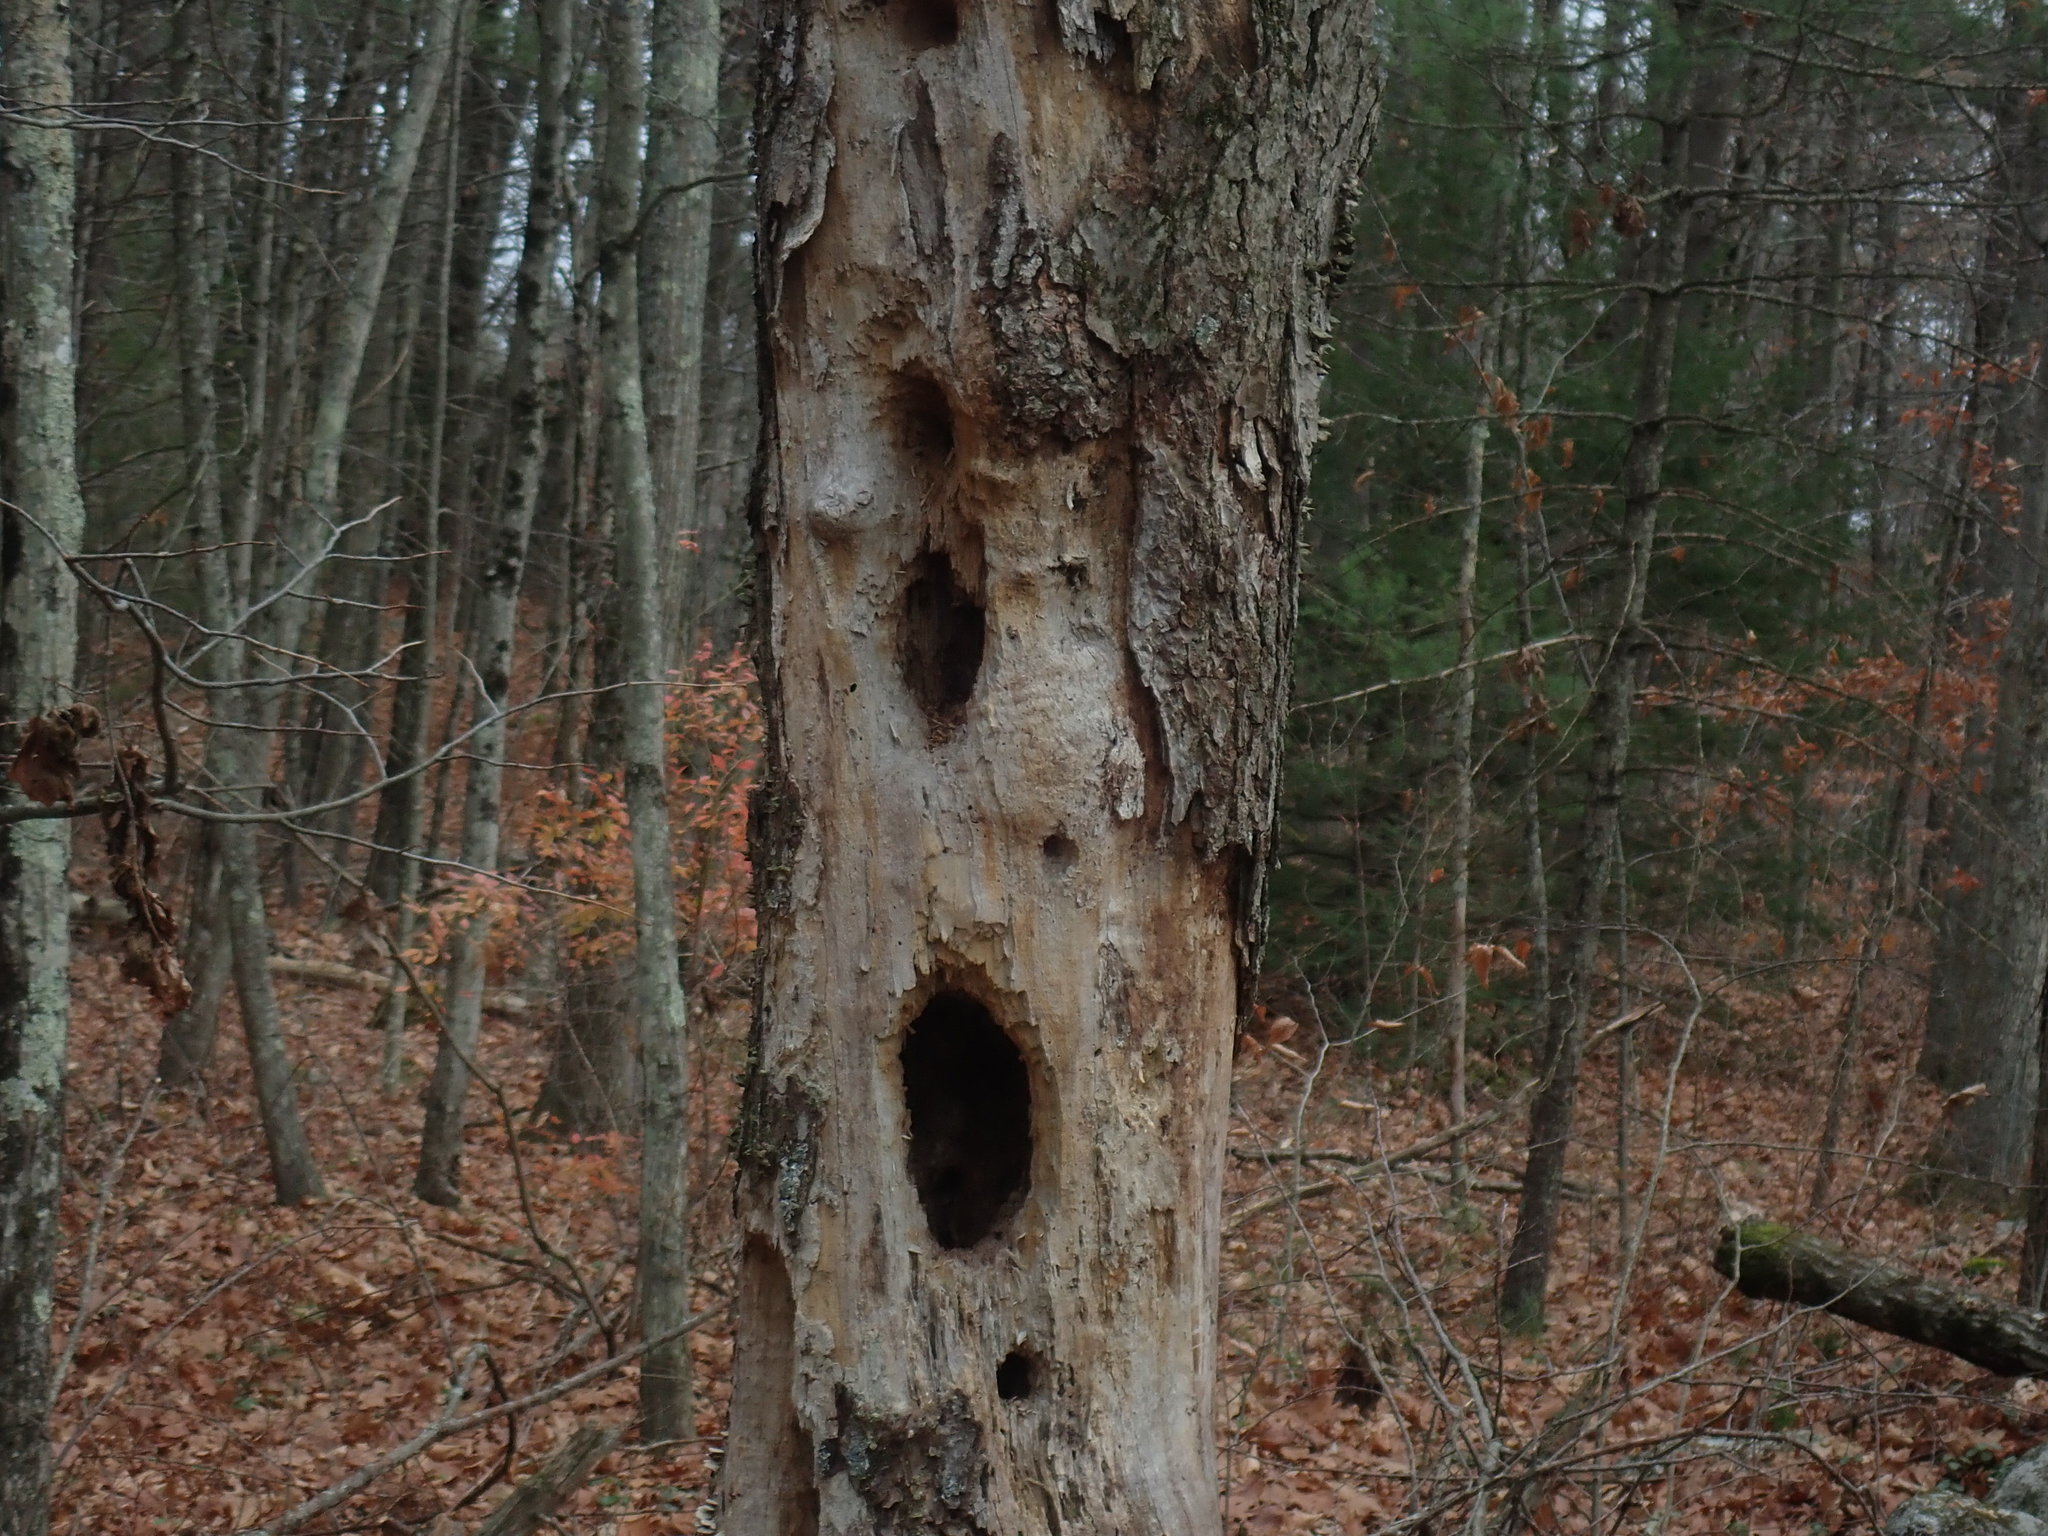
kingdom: Animalia
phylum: Chordata
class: Aves
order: Piciformes
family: Picidae
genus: Dryocopus
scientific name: Dryocopus pileatus
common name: Pileated woodpecker
